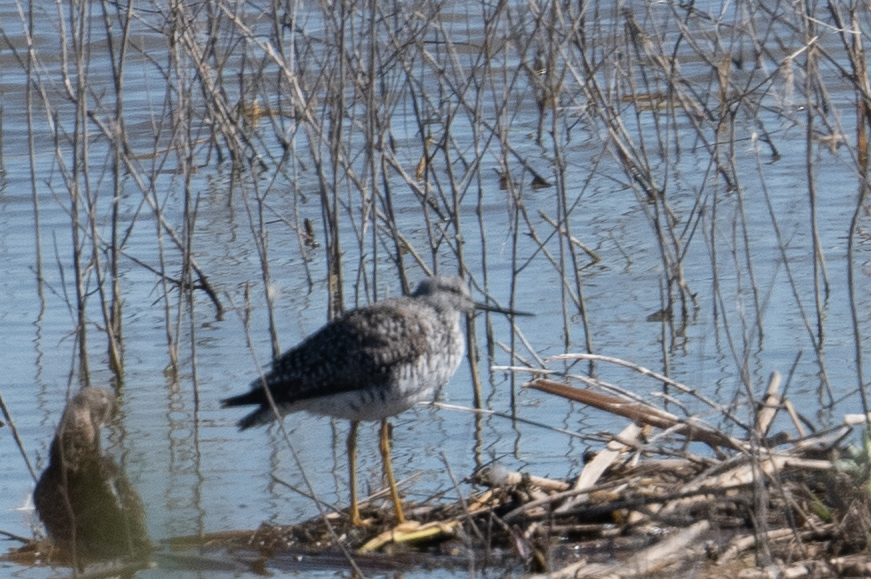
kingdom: Animalia
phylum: Chordata
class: Aves
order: Charadriiformes
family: Scolopacidae
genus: Tringa
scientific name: Tringa melanoleuca
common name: Greater yellowlegs
